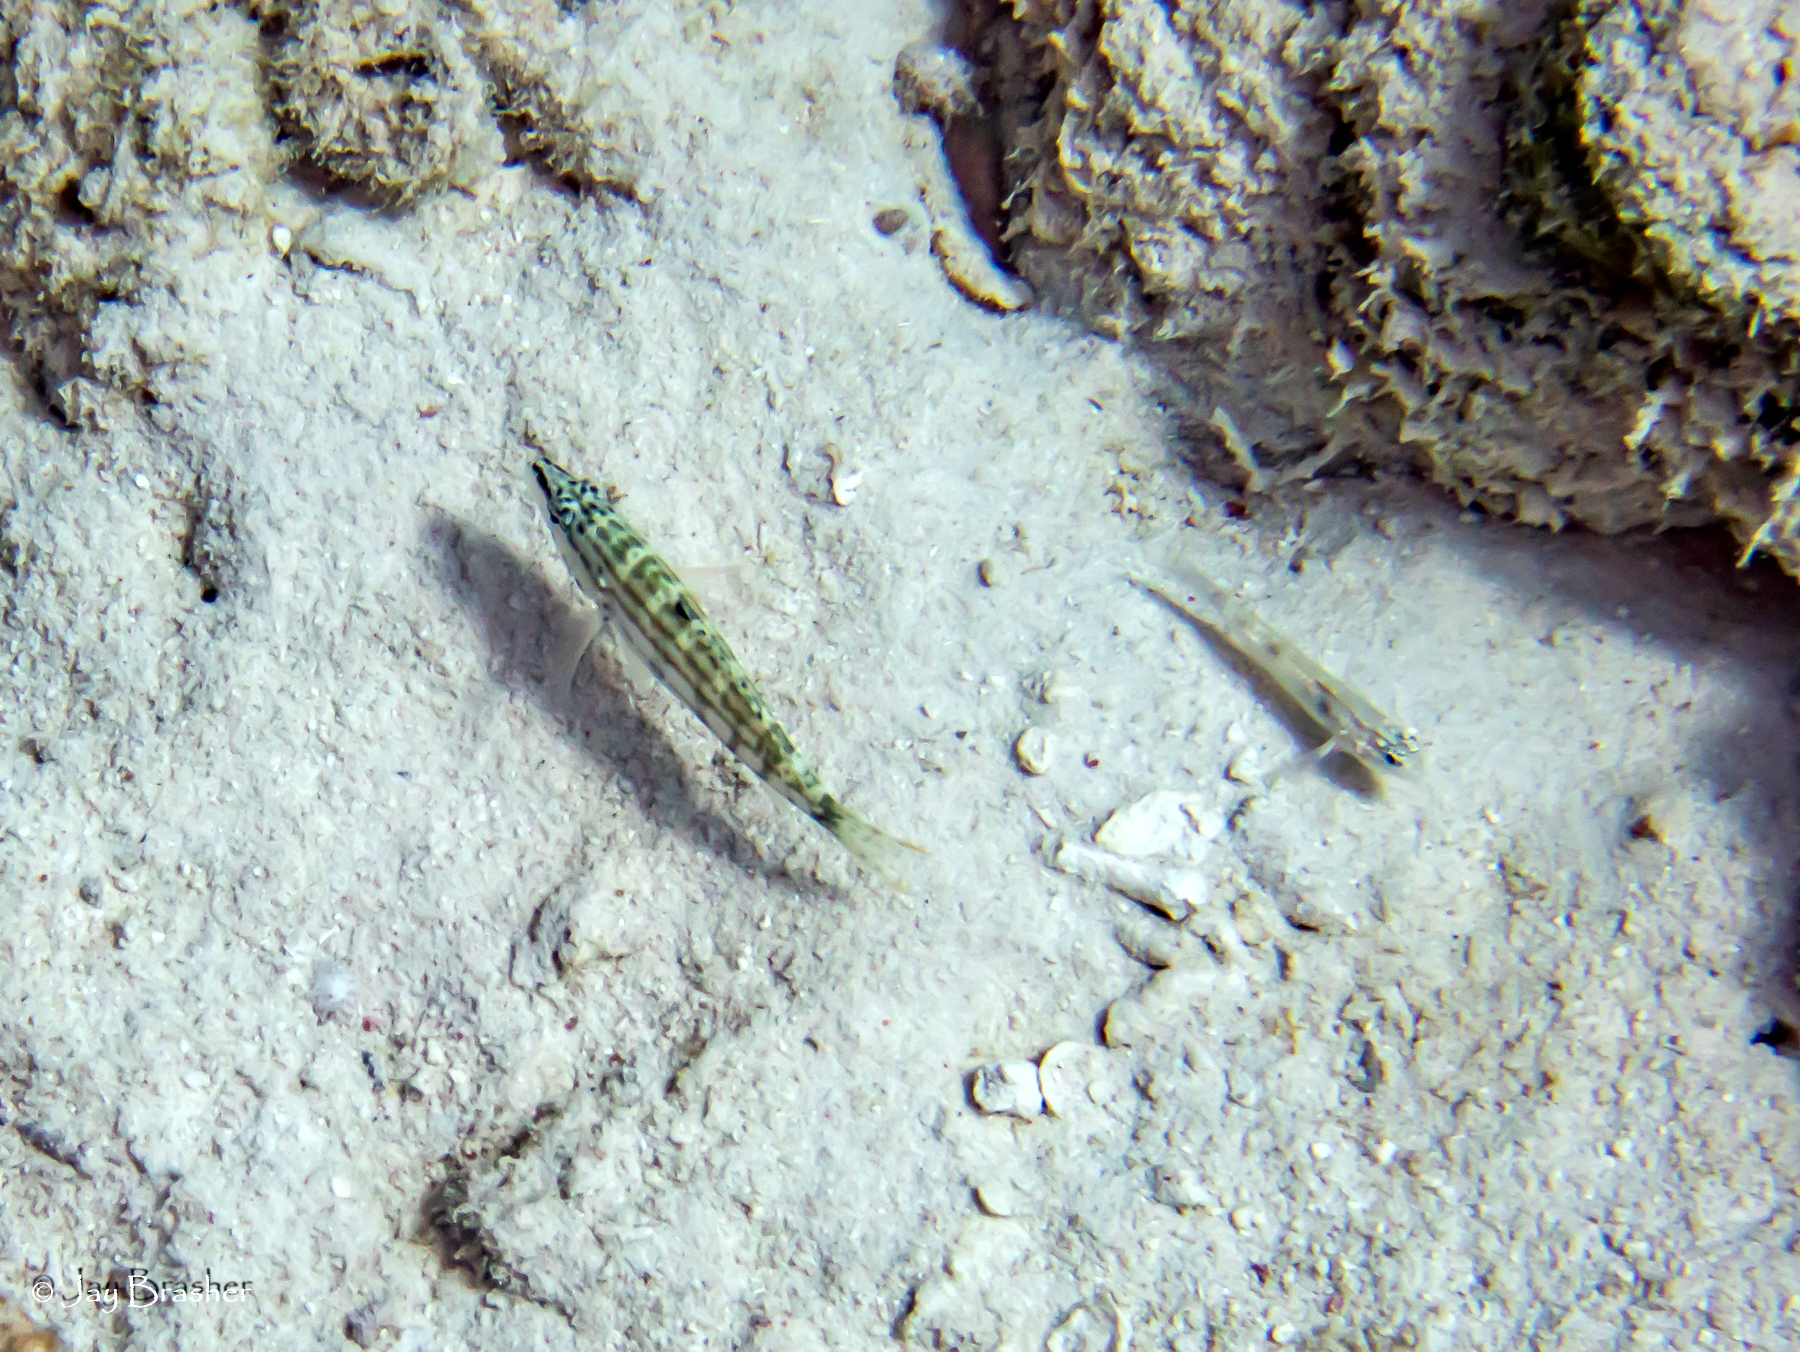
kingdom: Animalia
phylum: Chordata
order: Perciformes
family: Serranidae
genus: Serranus
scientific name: Serranus tigrinus
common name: Harlequin bass
